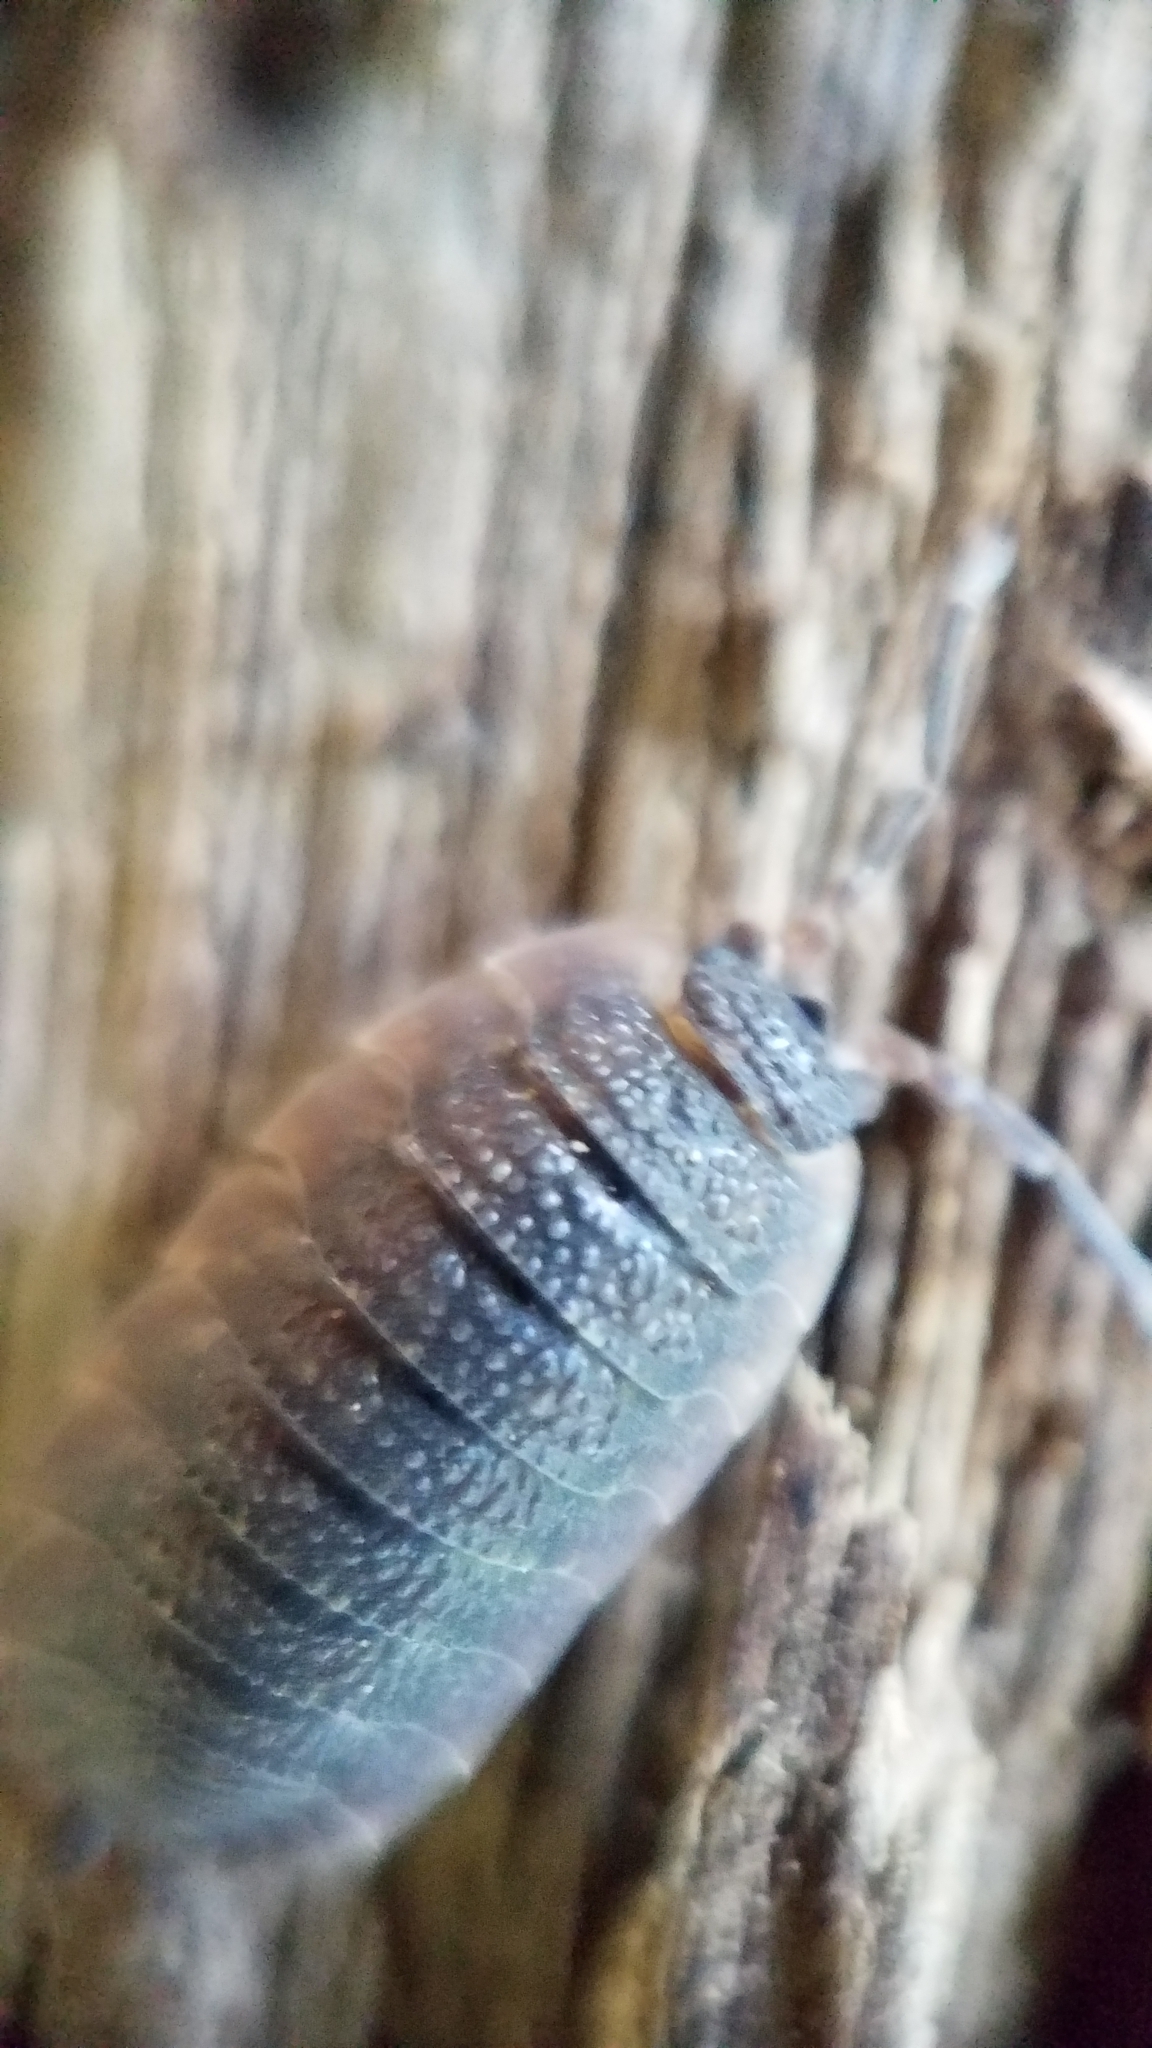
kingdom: Animalia
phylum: Arthropoda
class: Malacostraca
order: Isopoda
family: Porcellionidae
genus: Porcellio
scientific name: Porcellio scaber
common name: Common rough woodlouse
